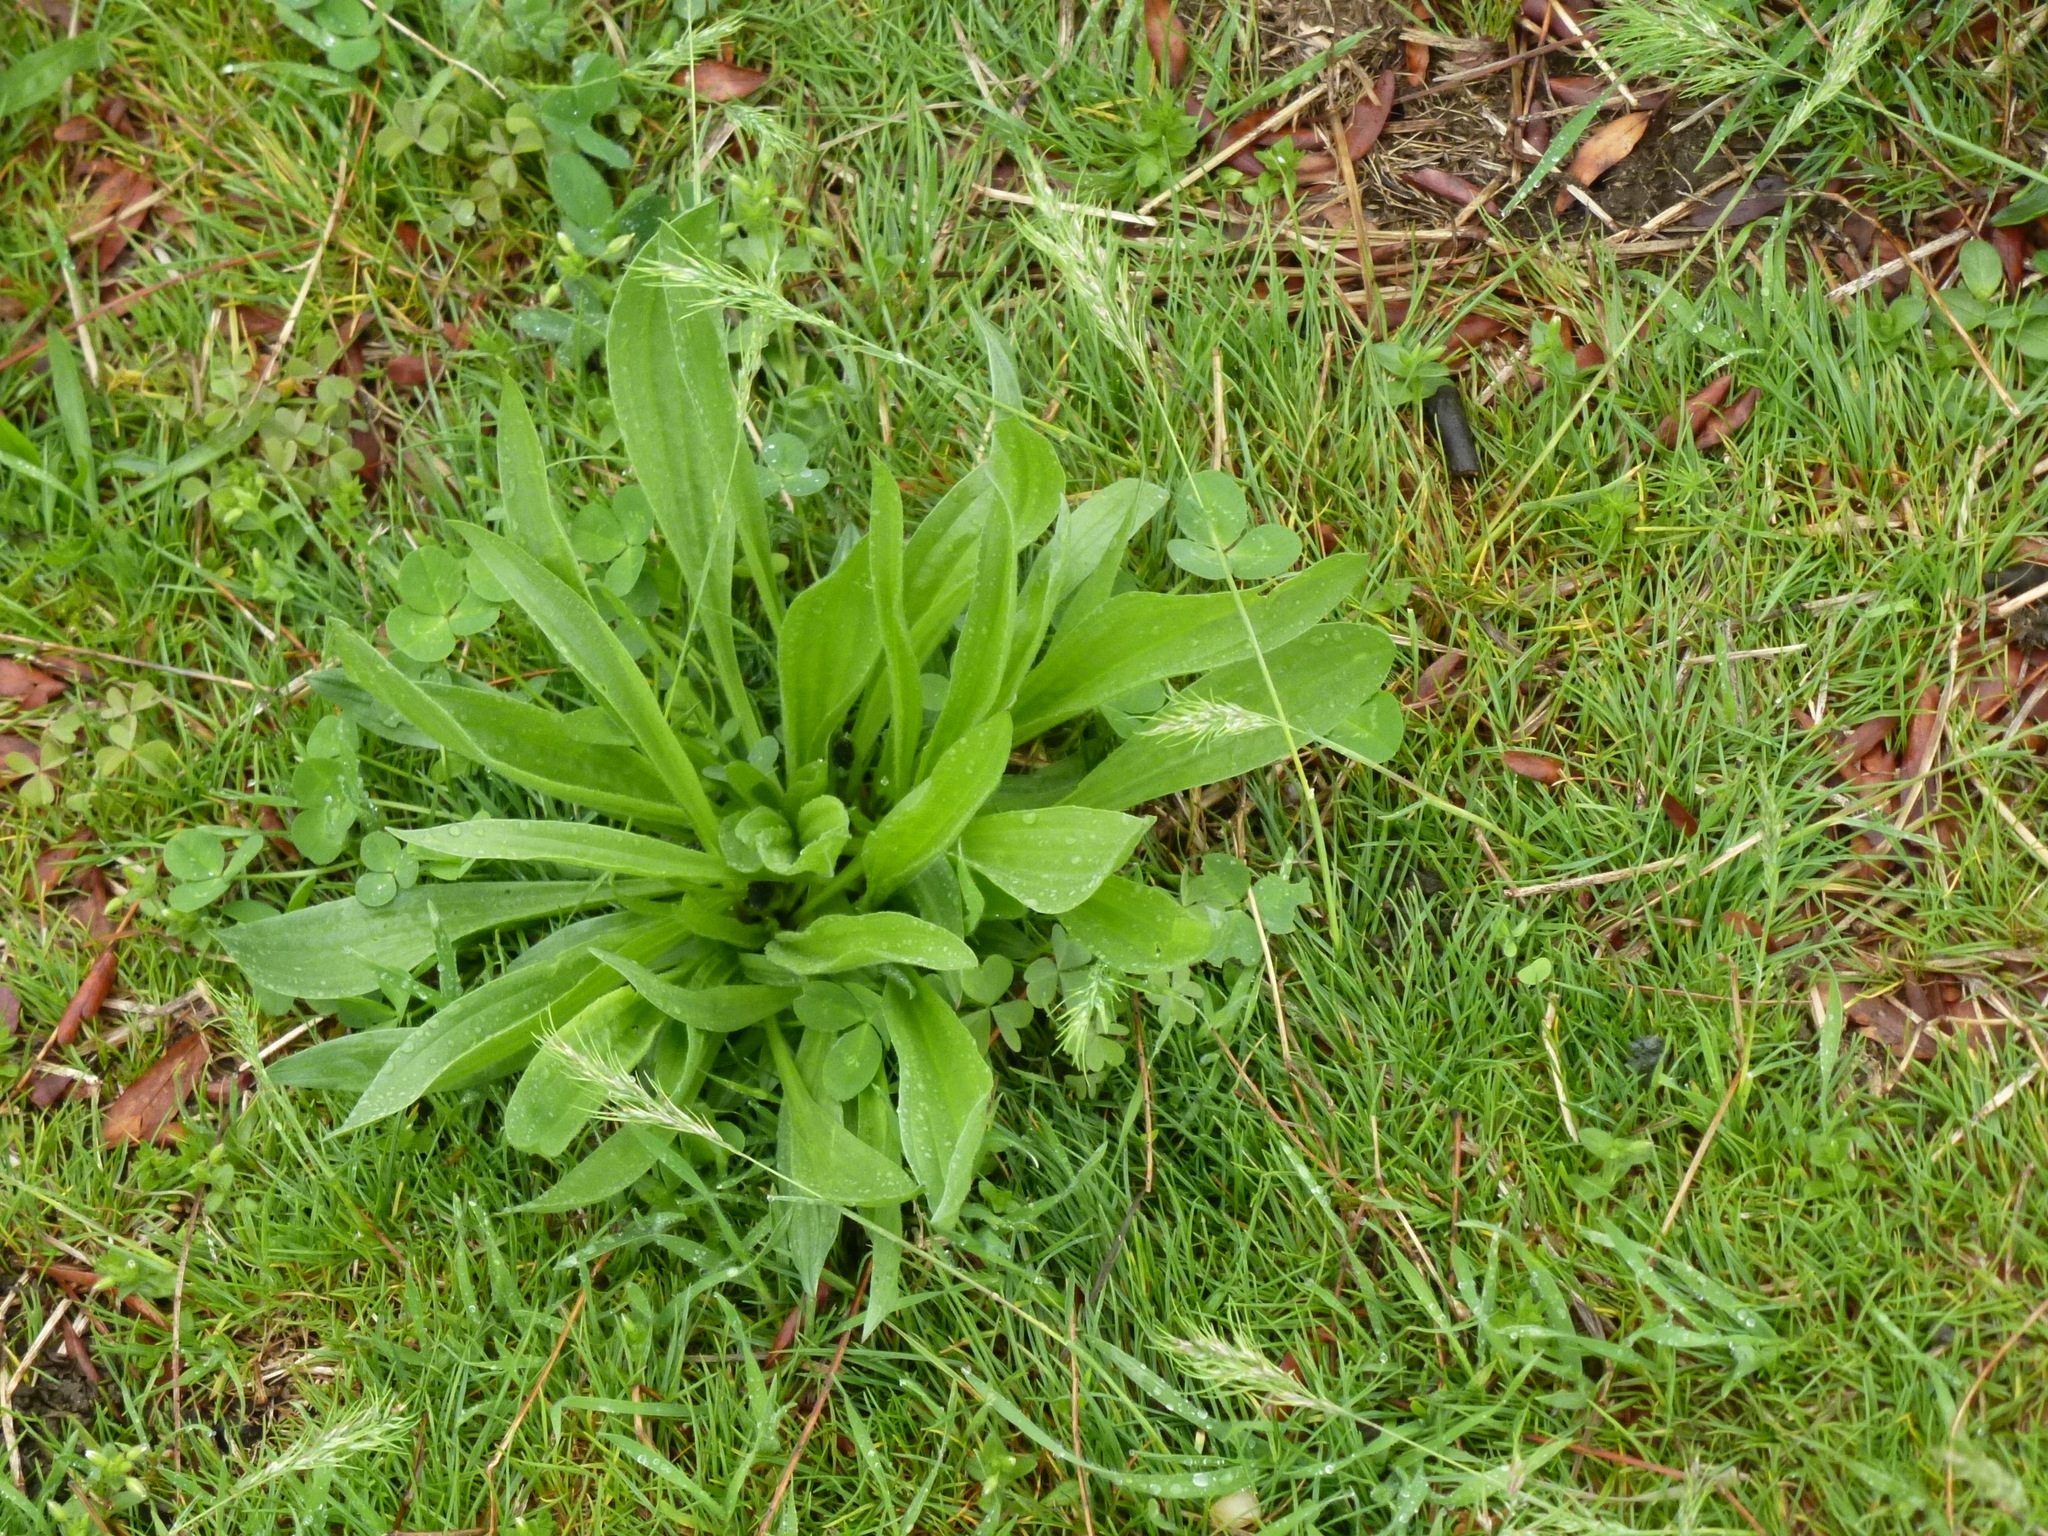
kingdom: Plantae
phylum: Tracheophyta
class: Magnoliopsida
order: Lamiales
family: Plantaginaceae
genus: Plantago
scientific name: Plantago lanceolata
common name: Ribwort plantain
